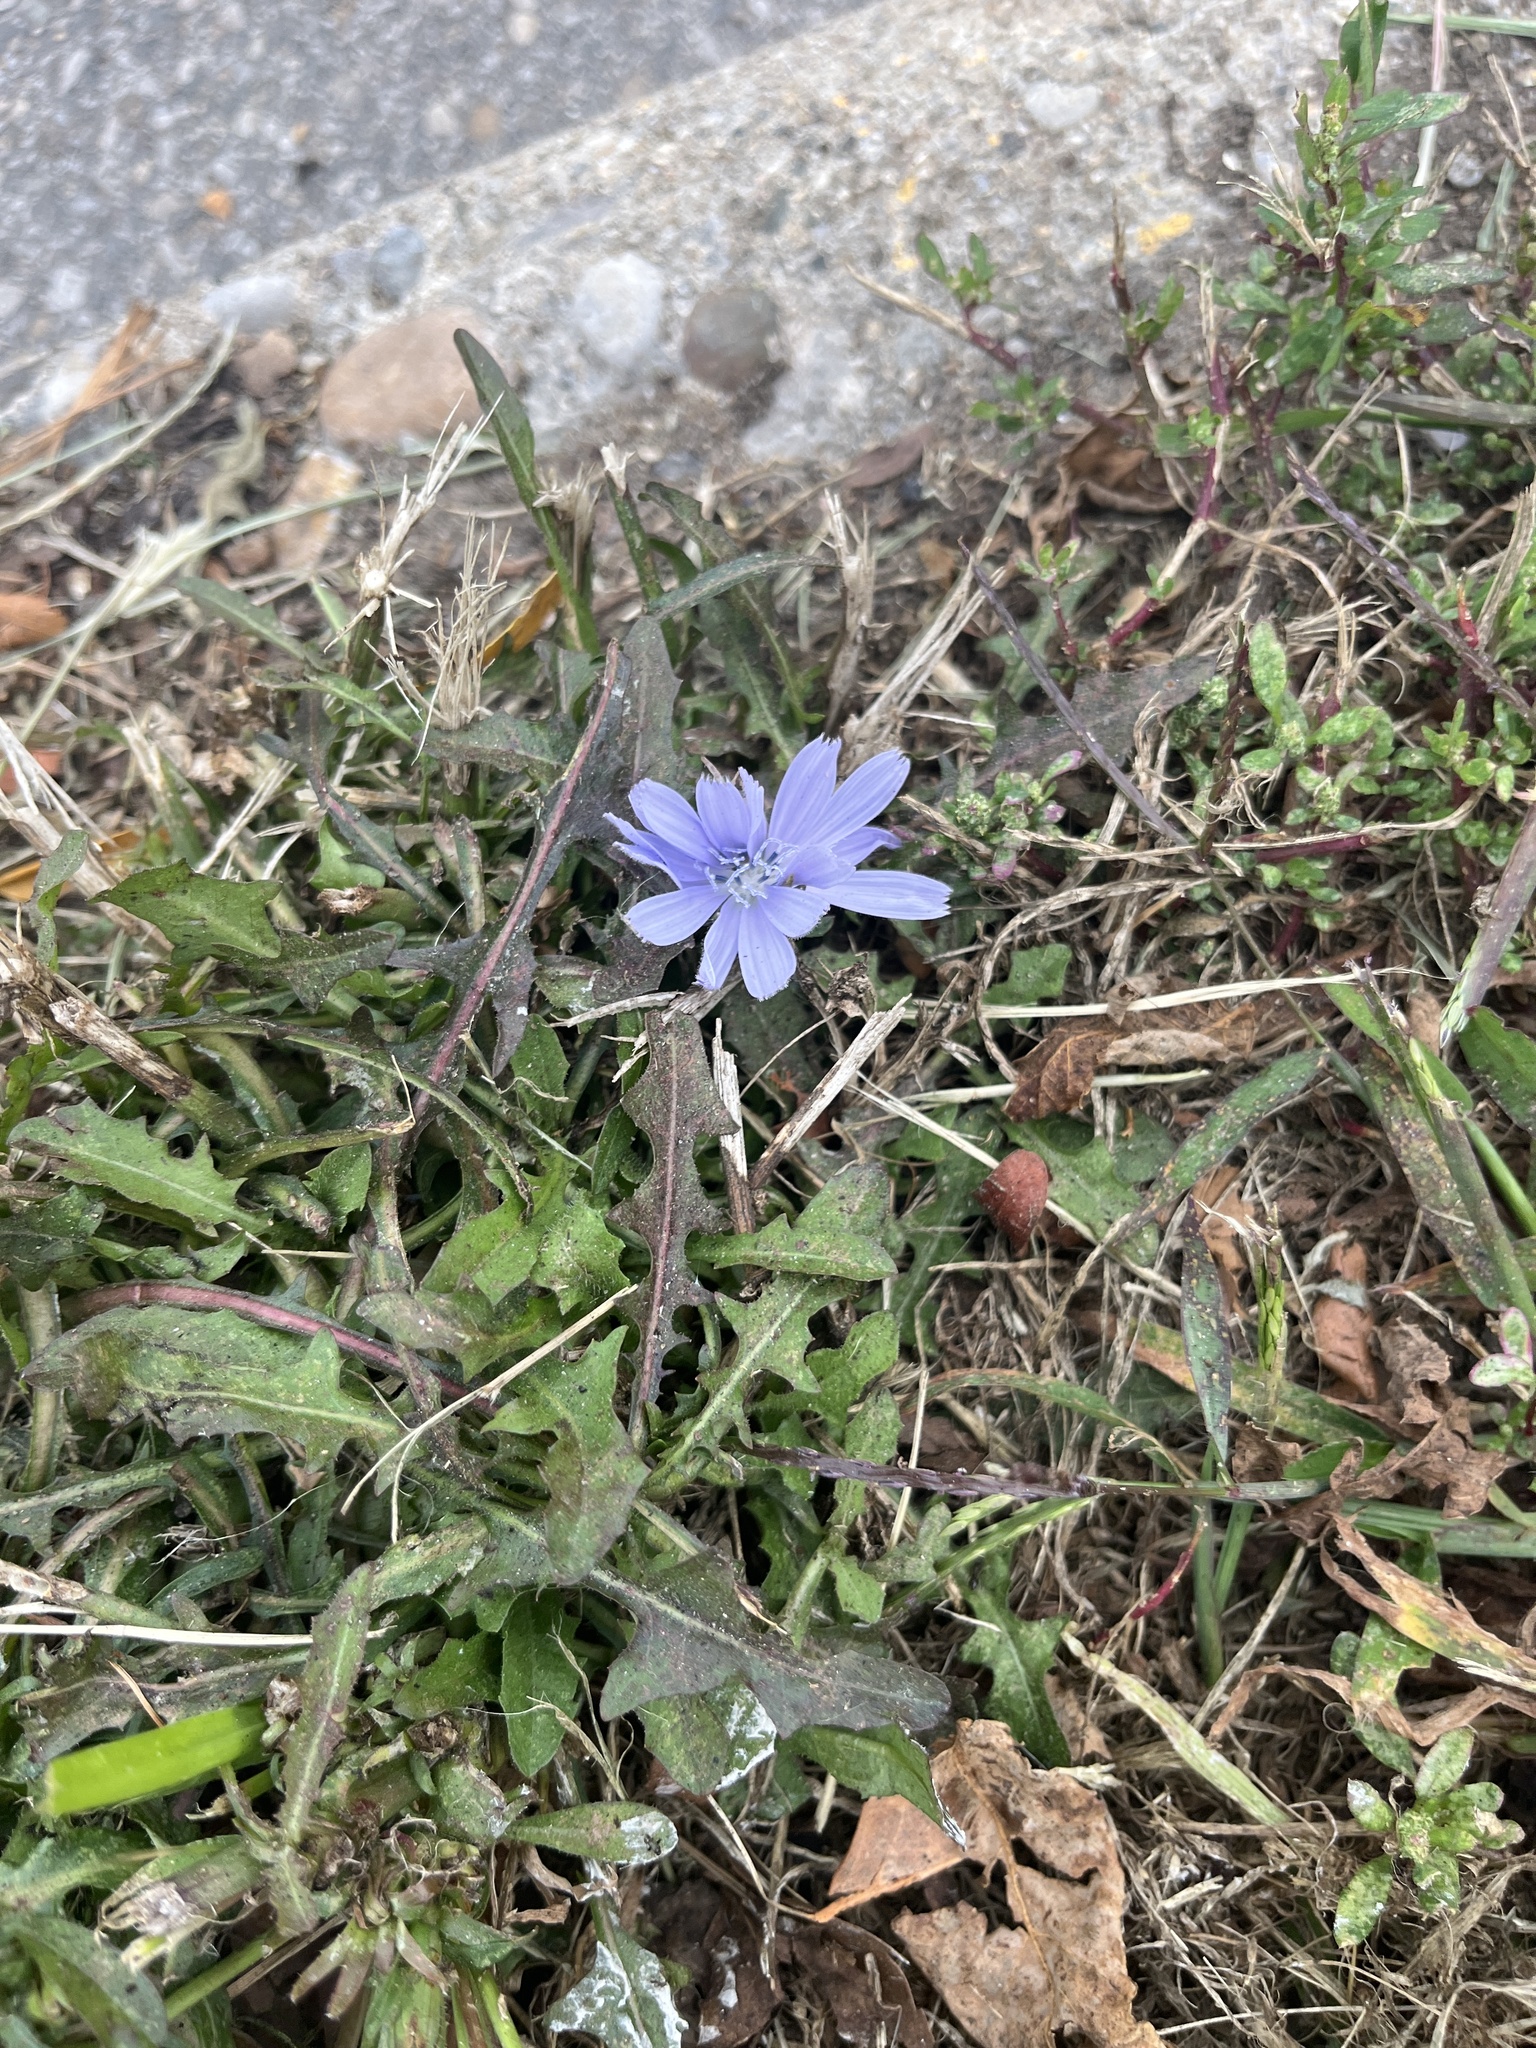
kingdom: Plantae
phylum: Tracheophyta
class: Magnoliopsida
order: Asterales
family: Asteraceae
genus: Cichorium
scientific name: Cichorium intybus
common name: Chicory
